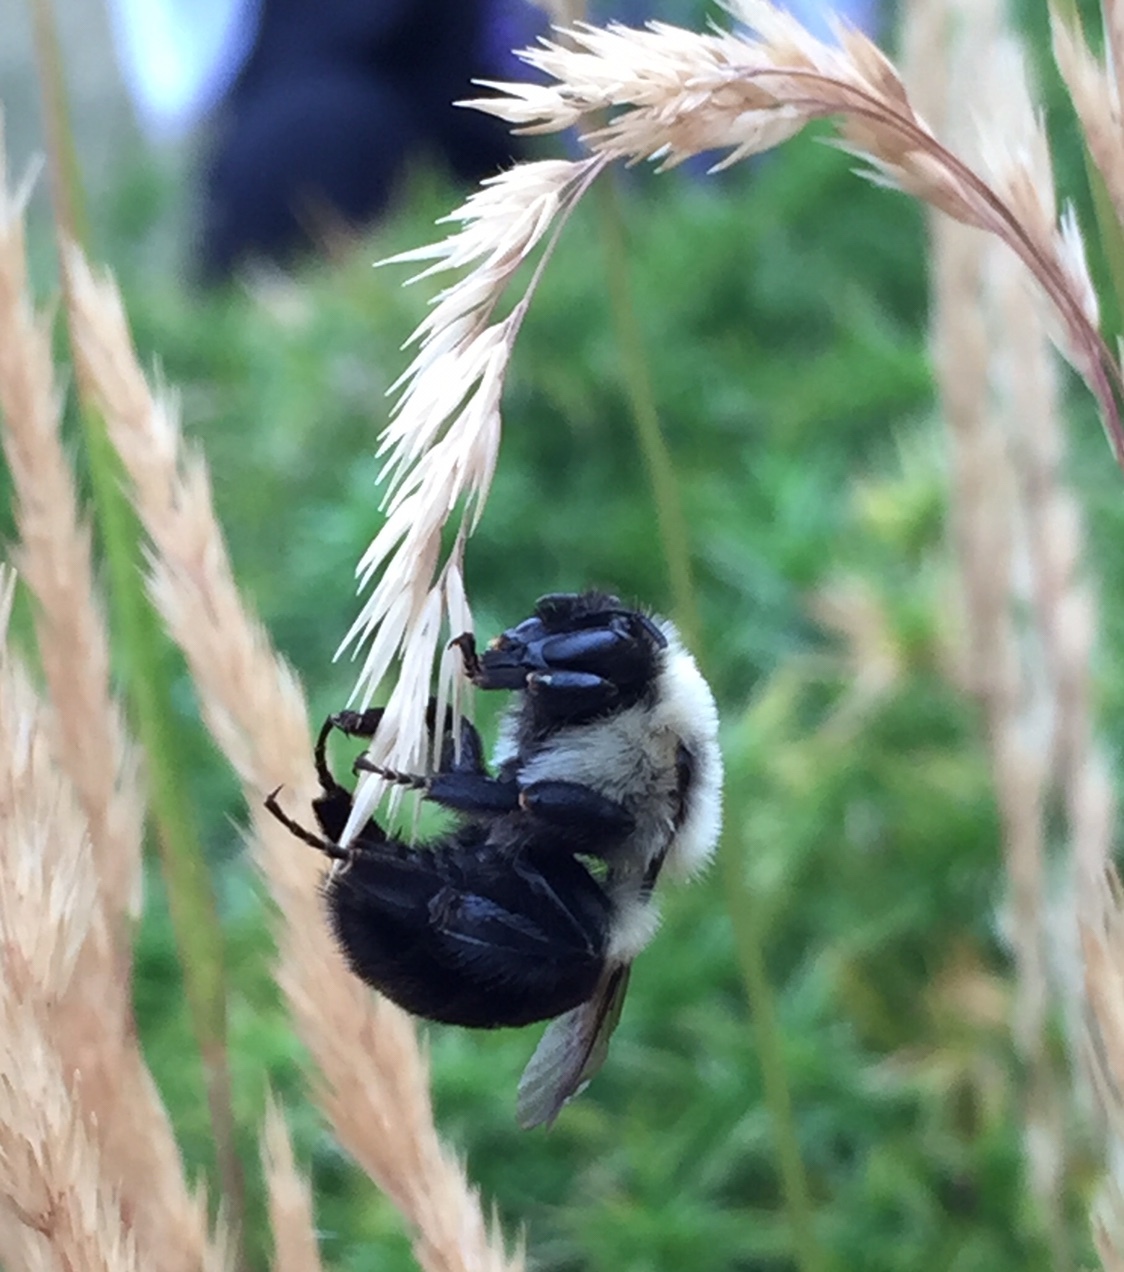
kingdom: Animalia
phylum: Arthropoda
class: Insecta
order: Hymenoptera
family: Apidae
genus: Bombus
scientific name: Bombus impatiens
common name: Common eastern bumble bee
